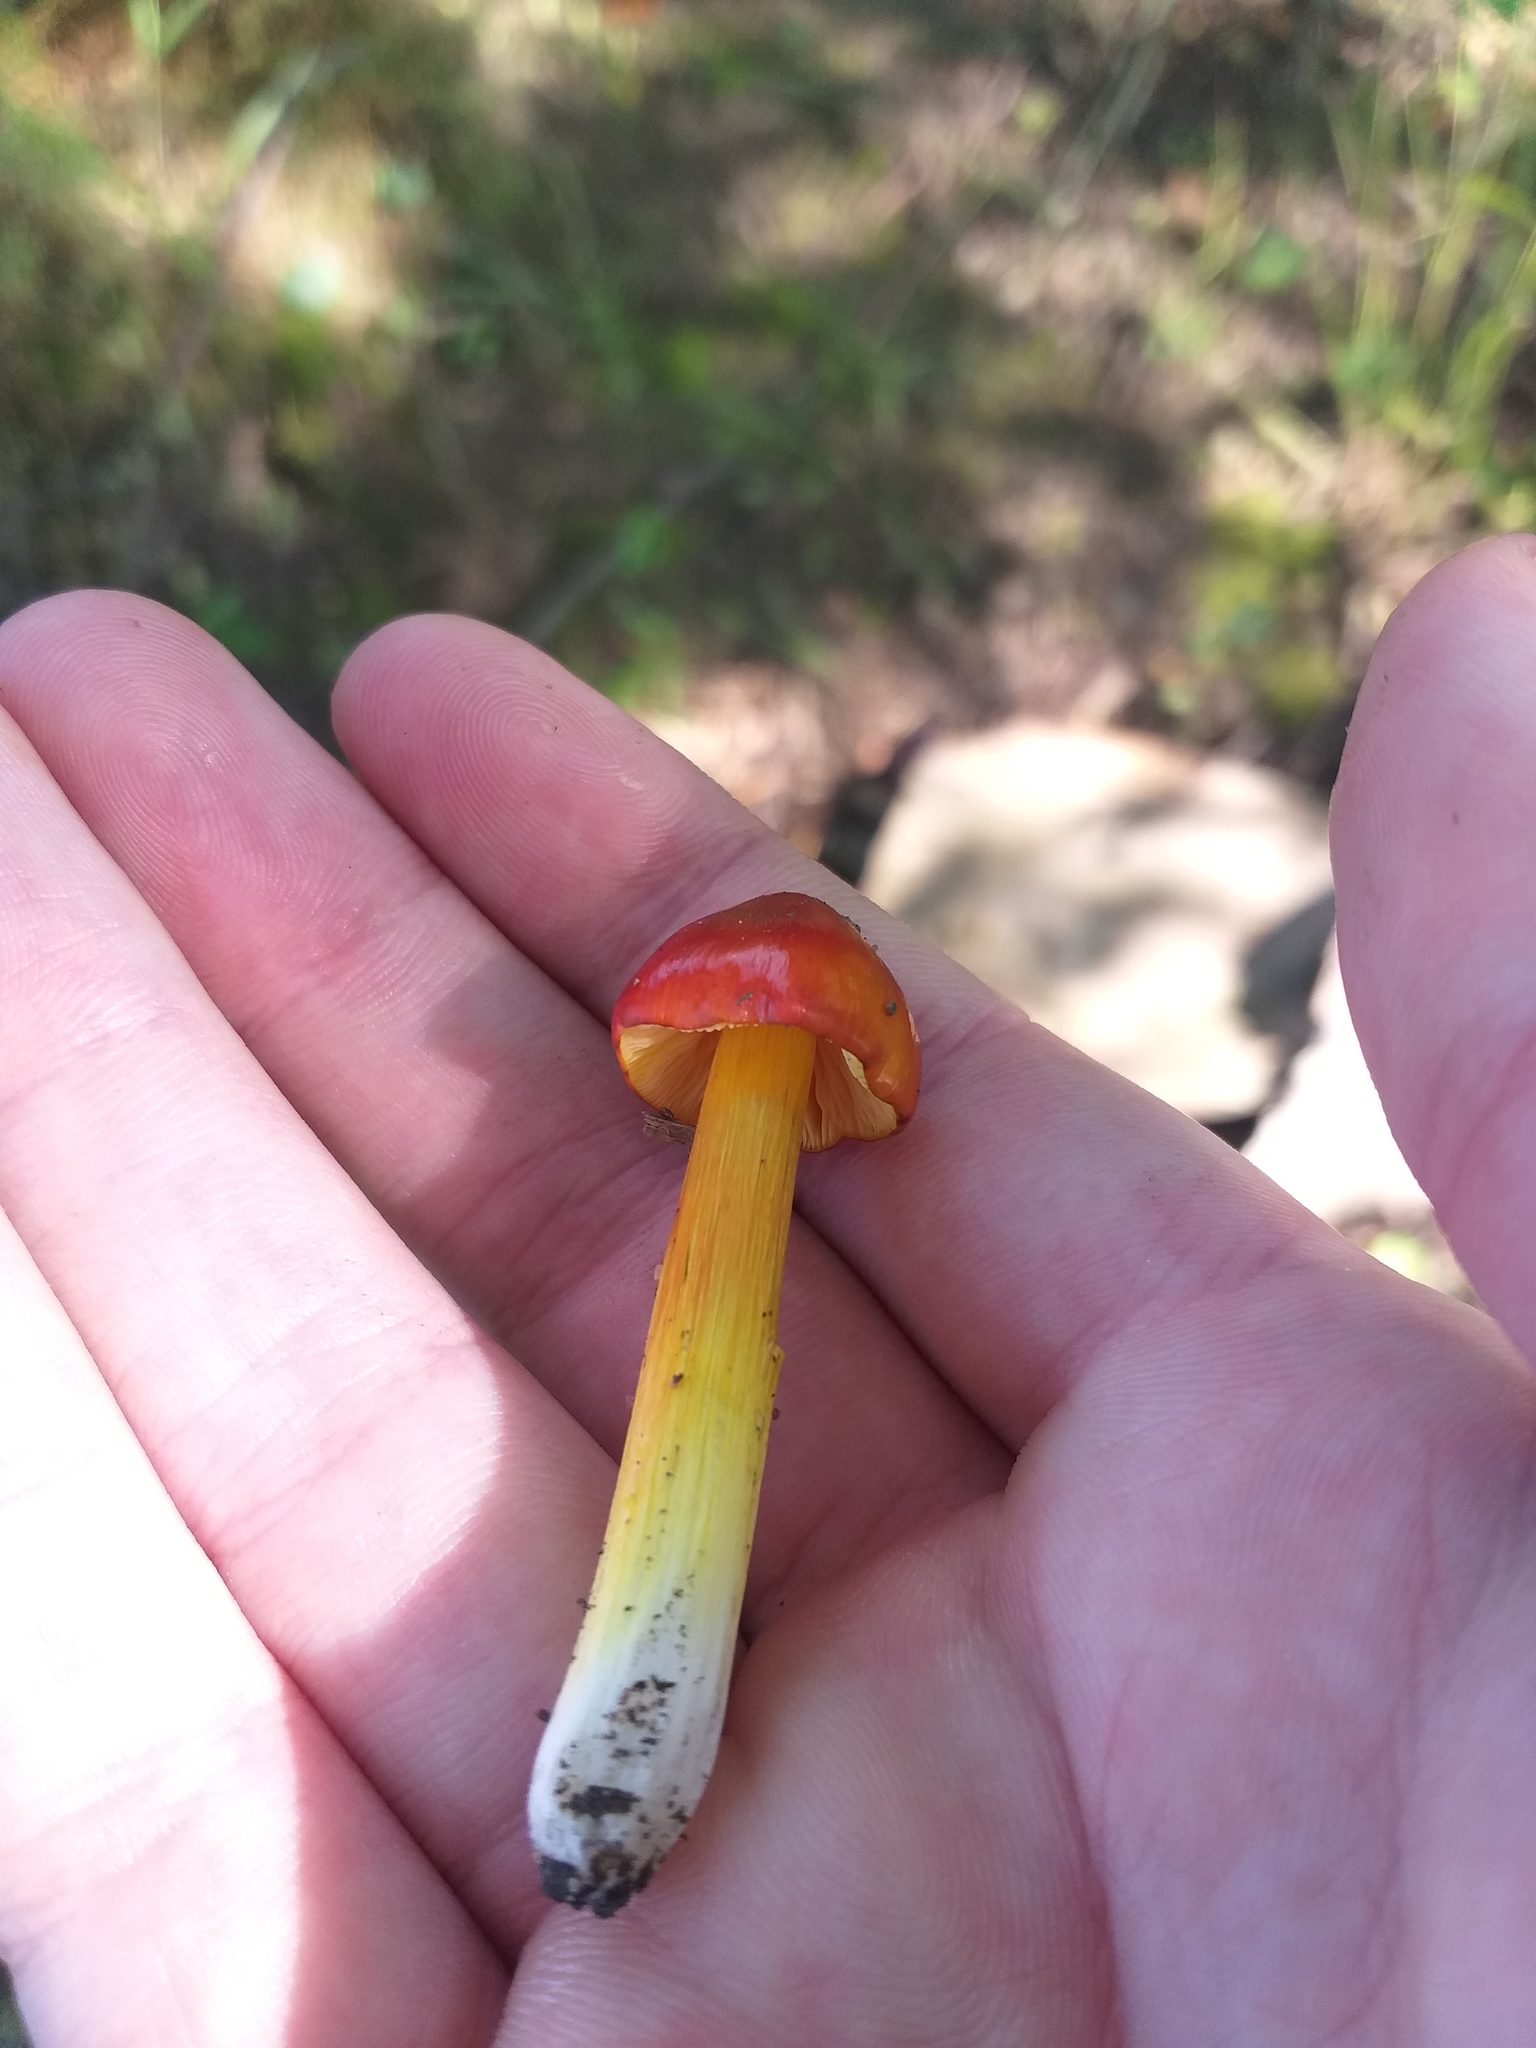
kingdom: Fungi
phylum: Basidiomycota
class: Agaricomycetes
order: Agaricales
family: Hygrophoraceae
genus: Hygrocybe
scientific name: Hygrocybe conica
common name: Blackening wax-cap
